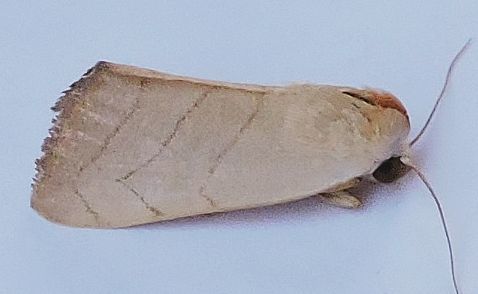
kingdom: Animalia
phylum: Arthropoda
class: Insecta
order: Lepidoptera
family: Noctuidae
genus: Bagisara
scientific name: Bagisara buxea
